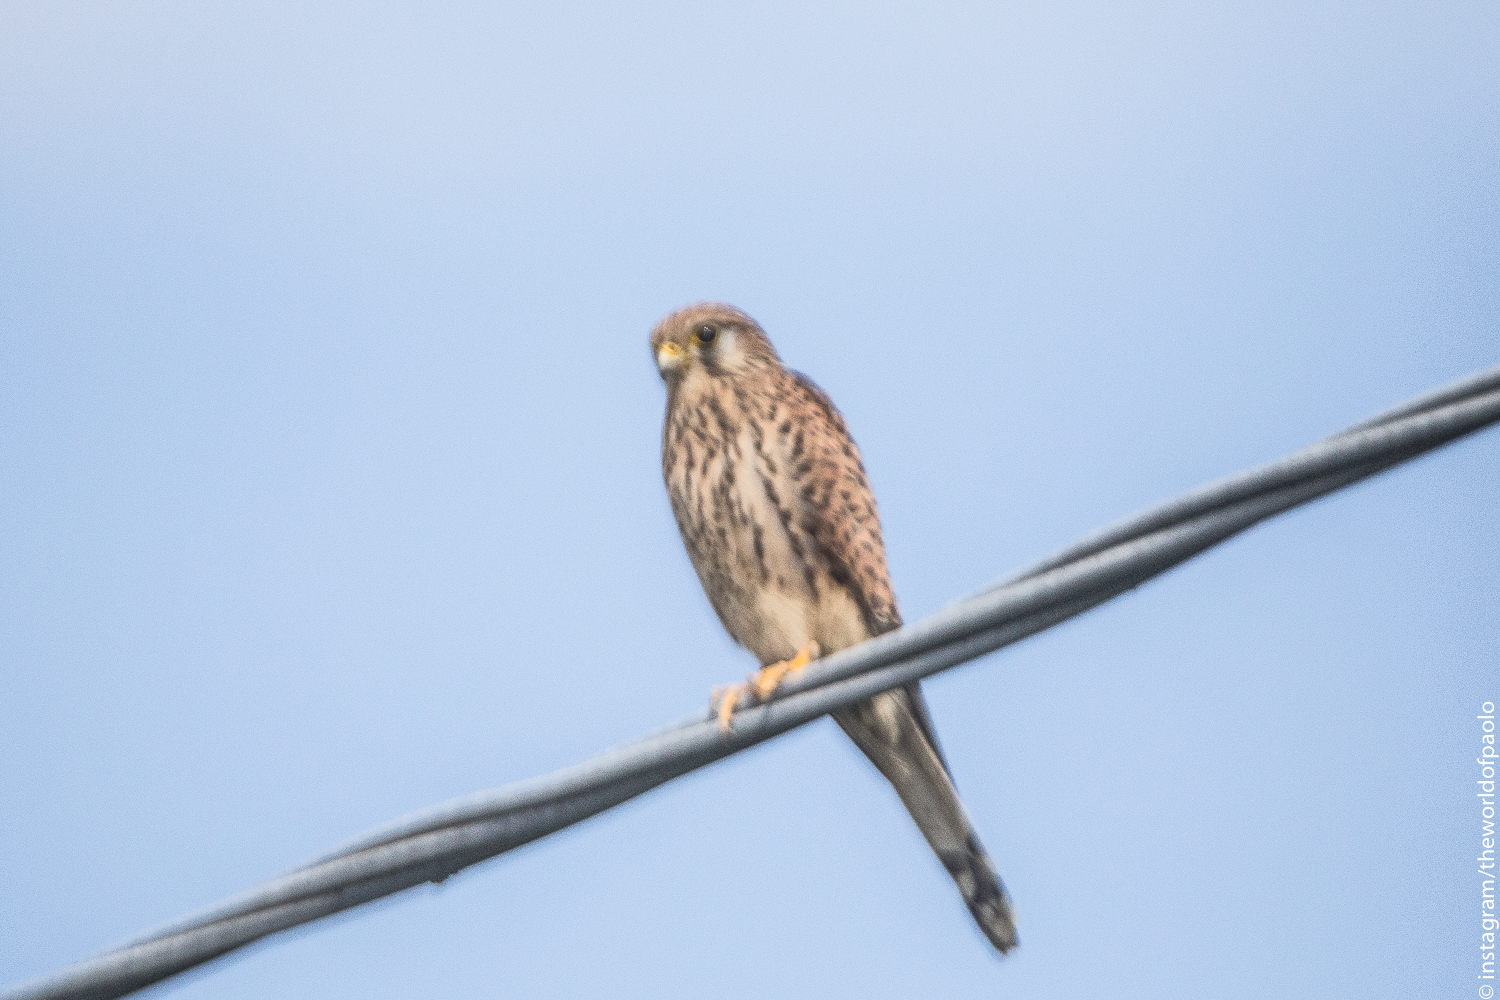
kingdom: Animalia
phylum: Chordata
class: Aves
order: Falconiformes
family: Falconidae
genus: Falco
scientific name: Falco tinnunculus
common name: Common kestrel
